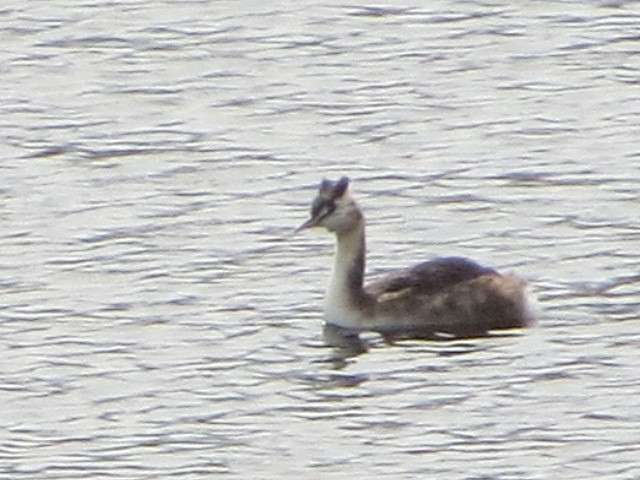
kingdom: Animalia
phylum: Chordata
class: Aves
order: Podicipediformes
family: Podicipedidae
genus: Podiceps
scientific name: Podiceps cristatus
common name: Great crested grebe
